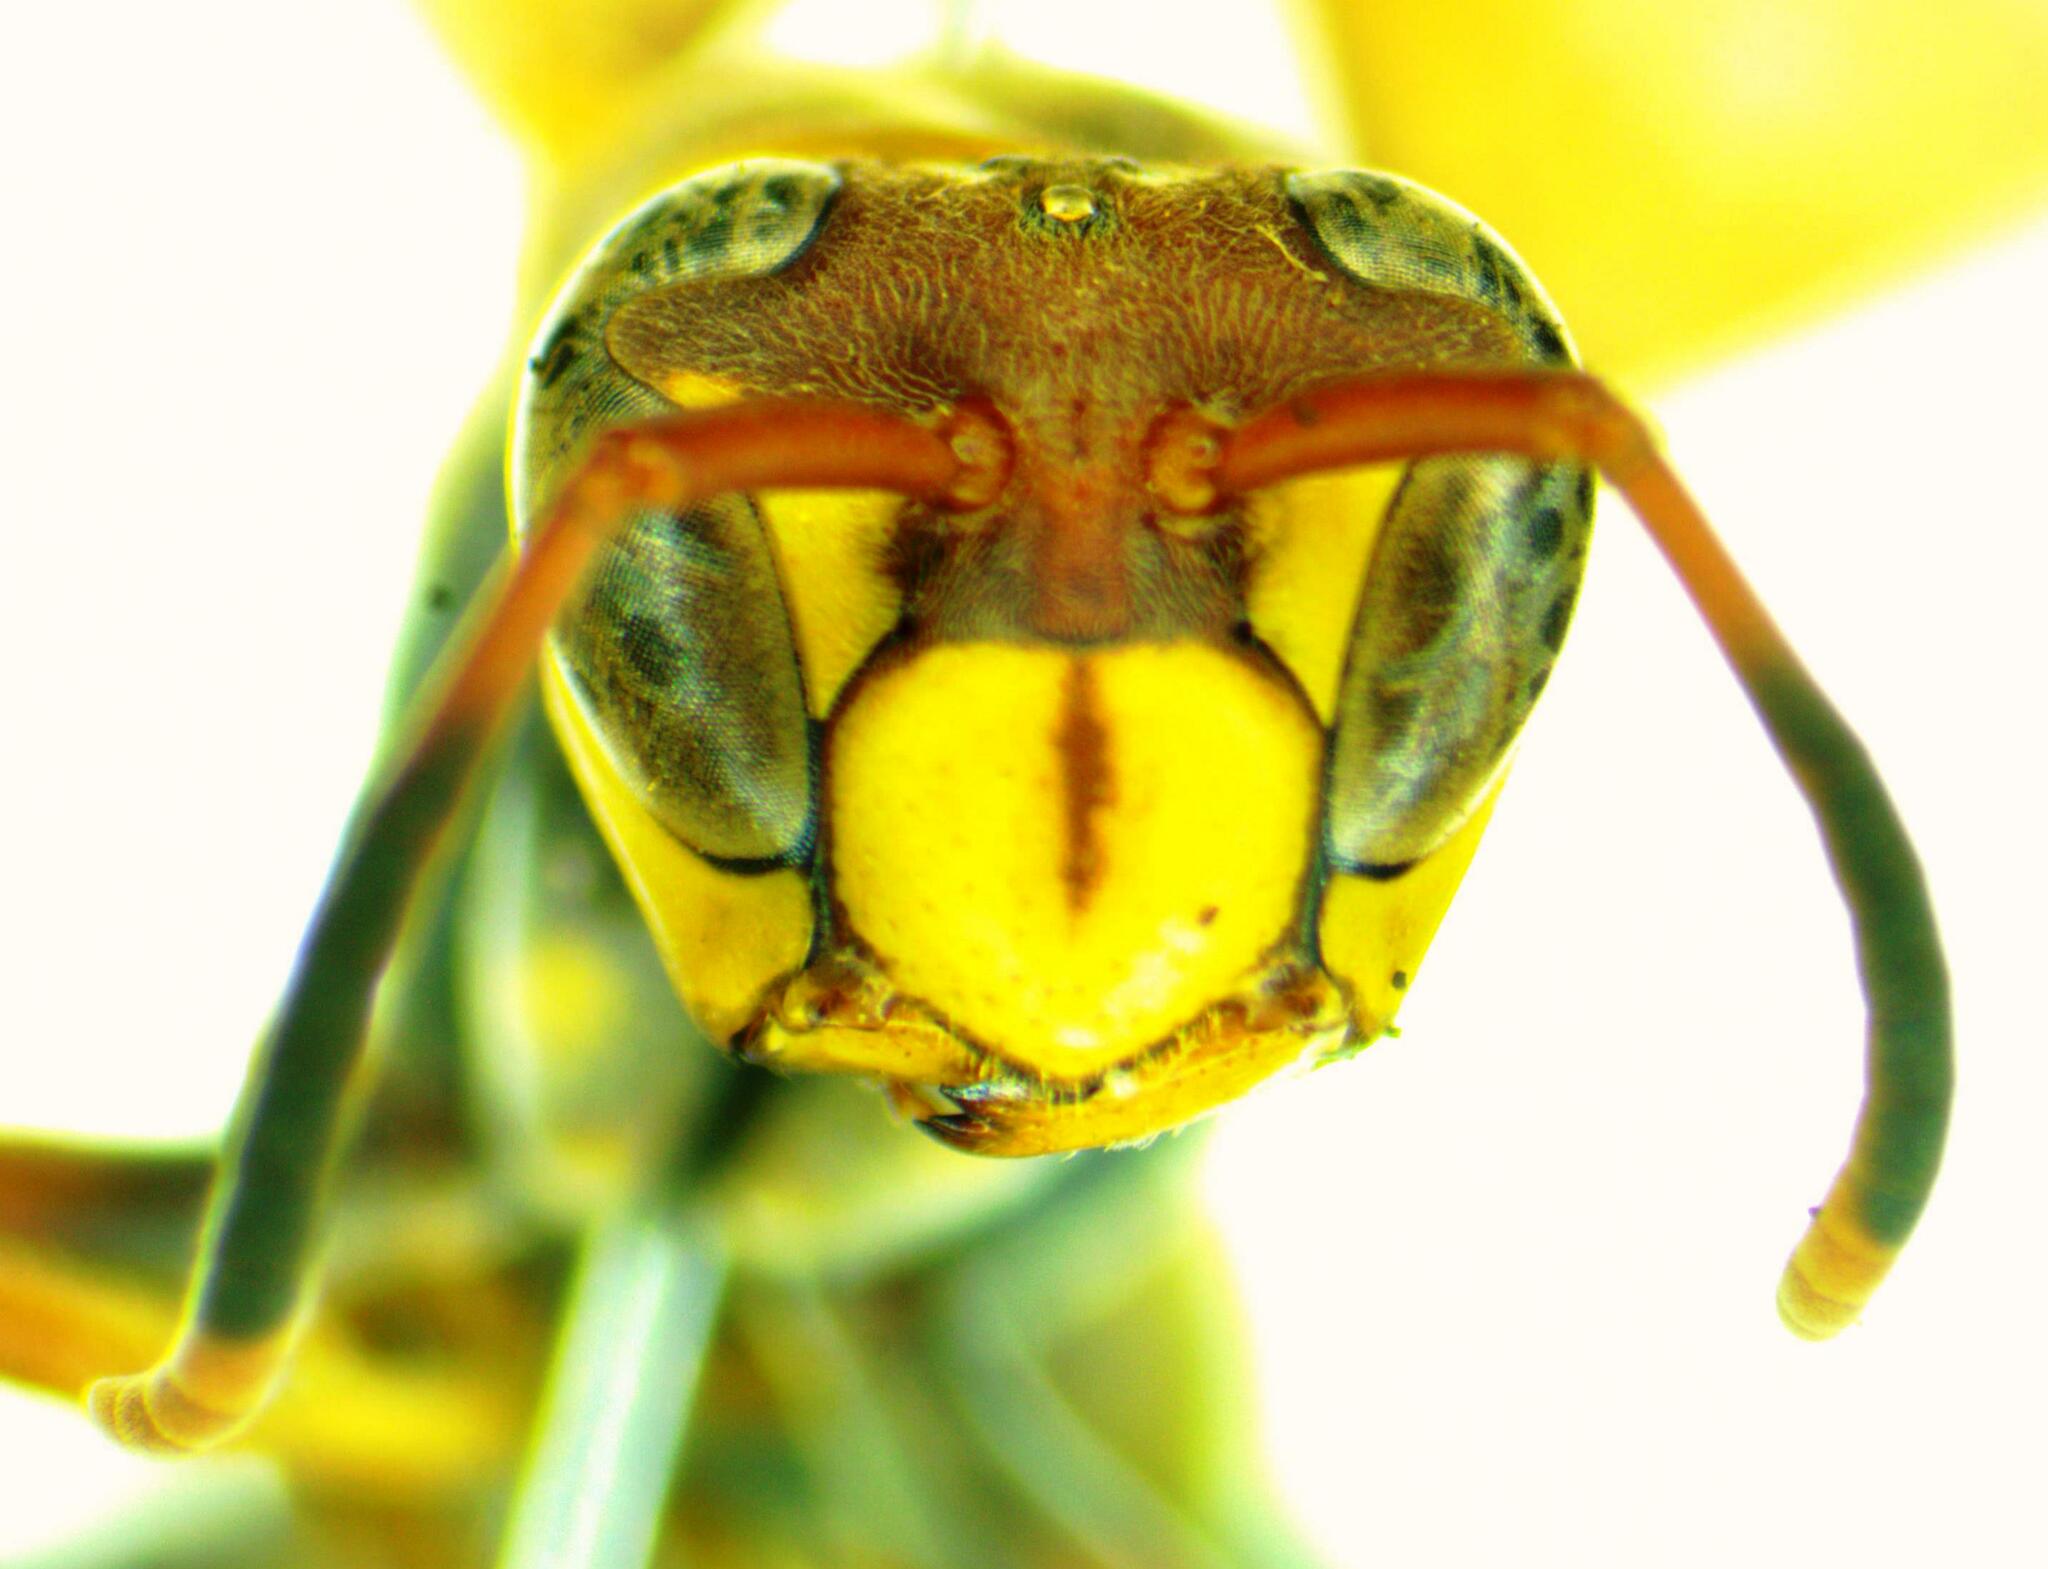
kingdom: Animalia
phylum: Arthropoda
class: Insecta
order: Hymenoptera
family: Eumenidae
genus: Polistes
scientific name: Polistes versicolor
